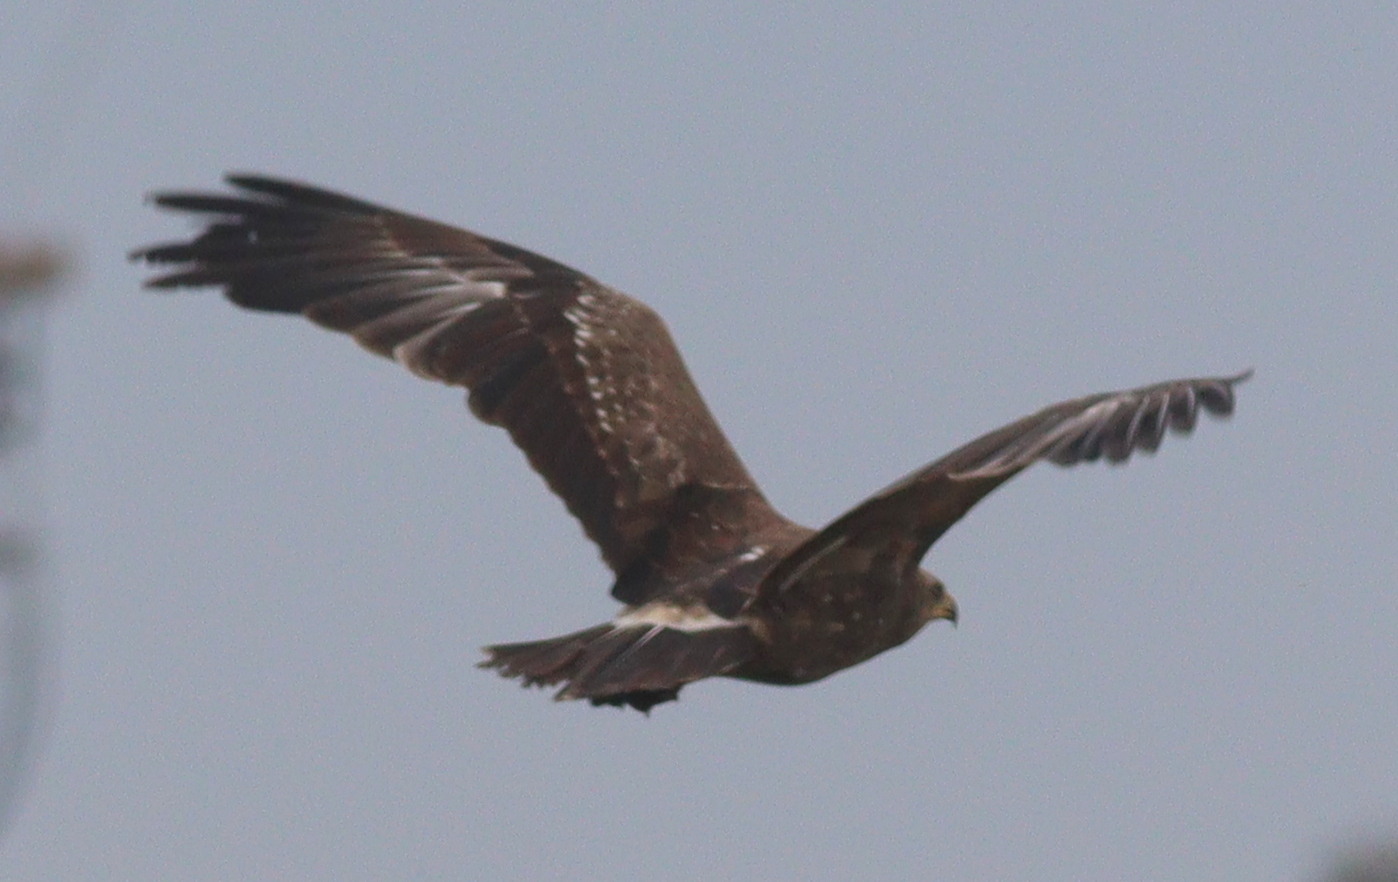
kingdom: Animalia
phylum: Chordata
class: Aves
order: Accipitriformes
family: Accipitridae
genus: Aquila
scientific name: Aquila pomarina
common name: Lesser spotted eagle
